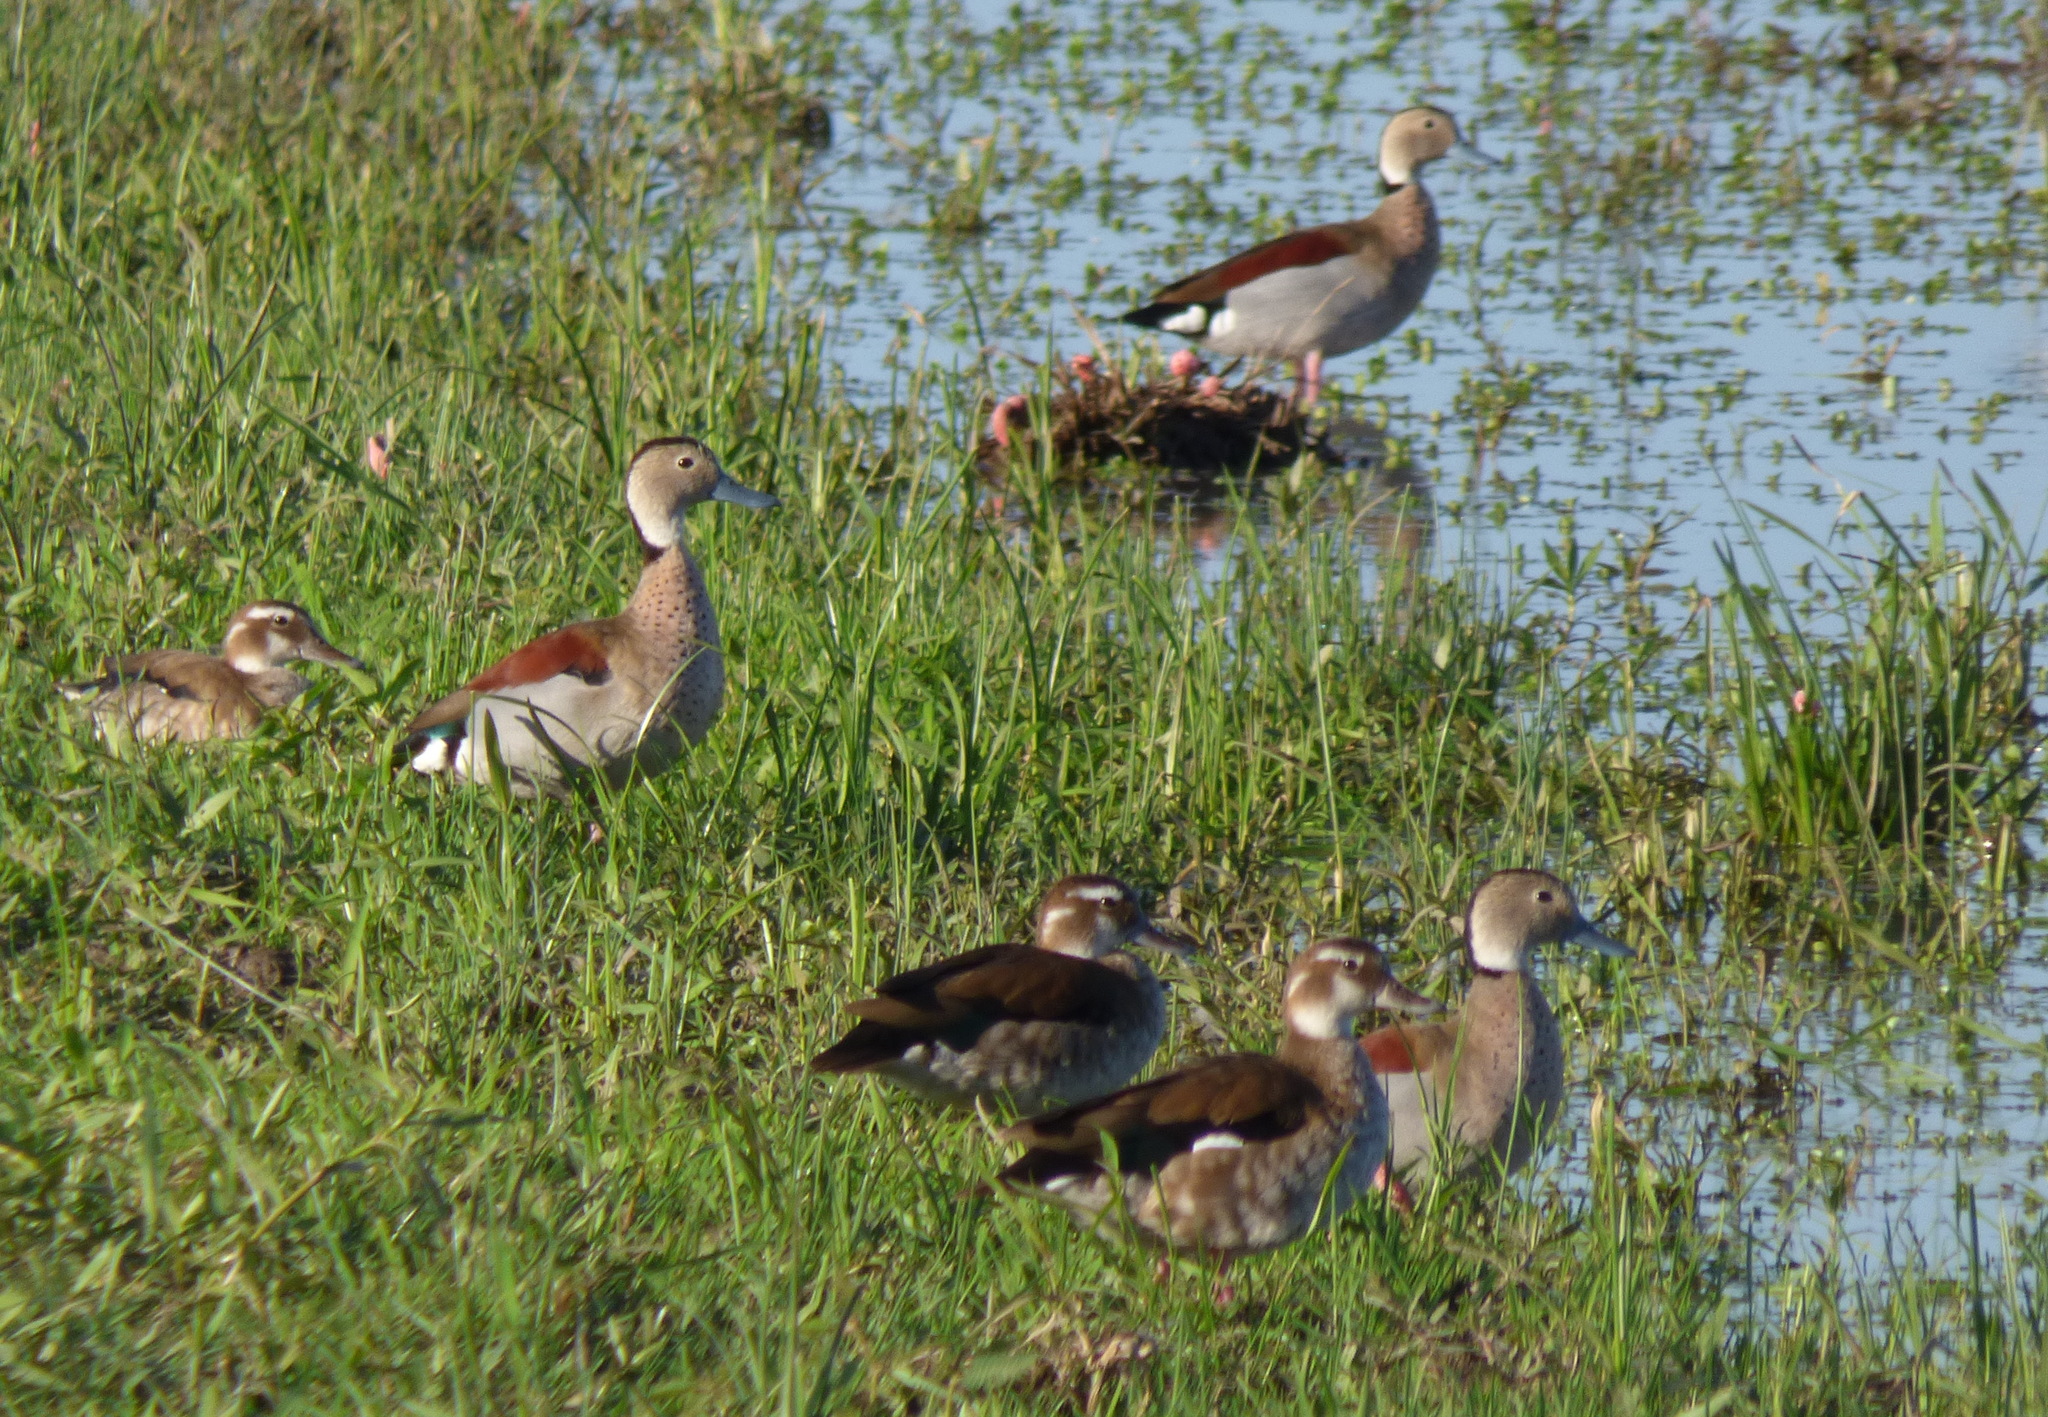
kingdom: Animalia
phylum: Chordata
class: Aves
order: Anseriformes
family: Anatidae
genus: Callonetta
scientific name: Callonetta leucophrys
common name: Ringed teal
